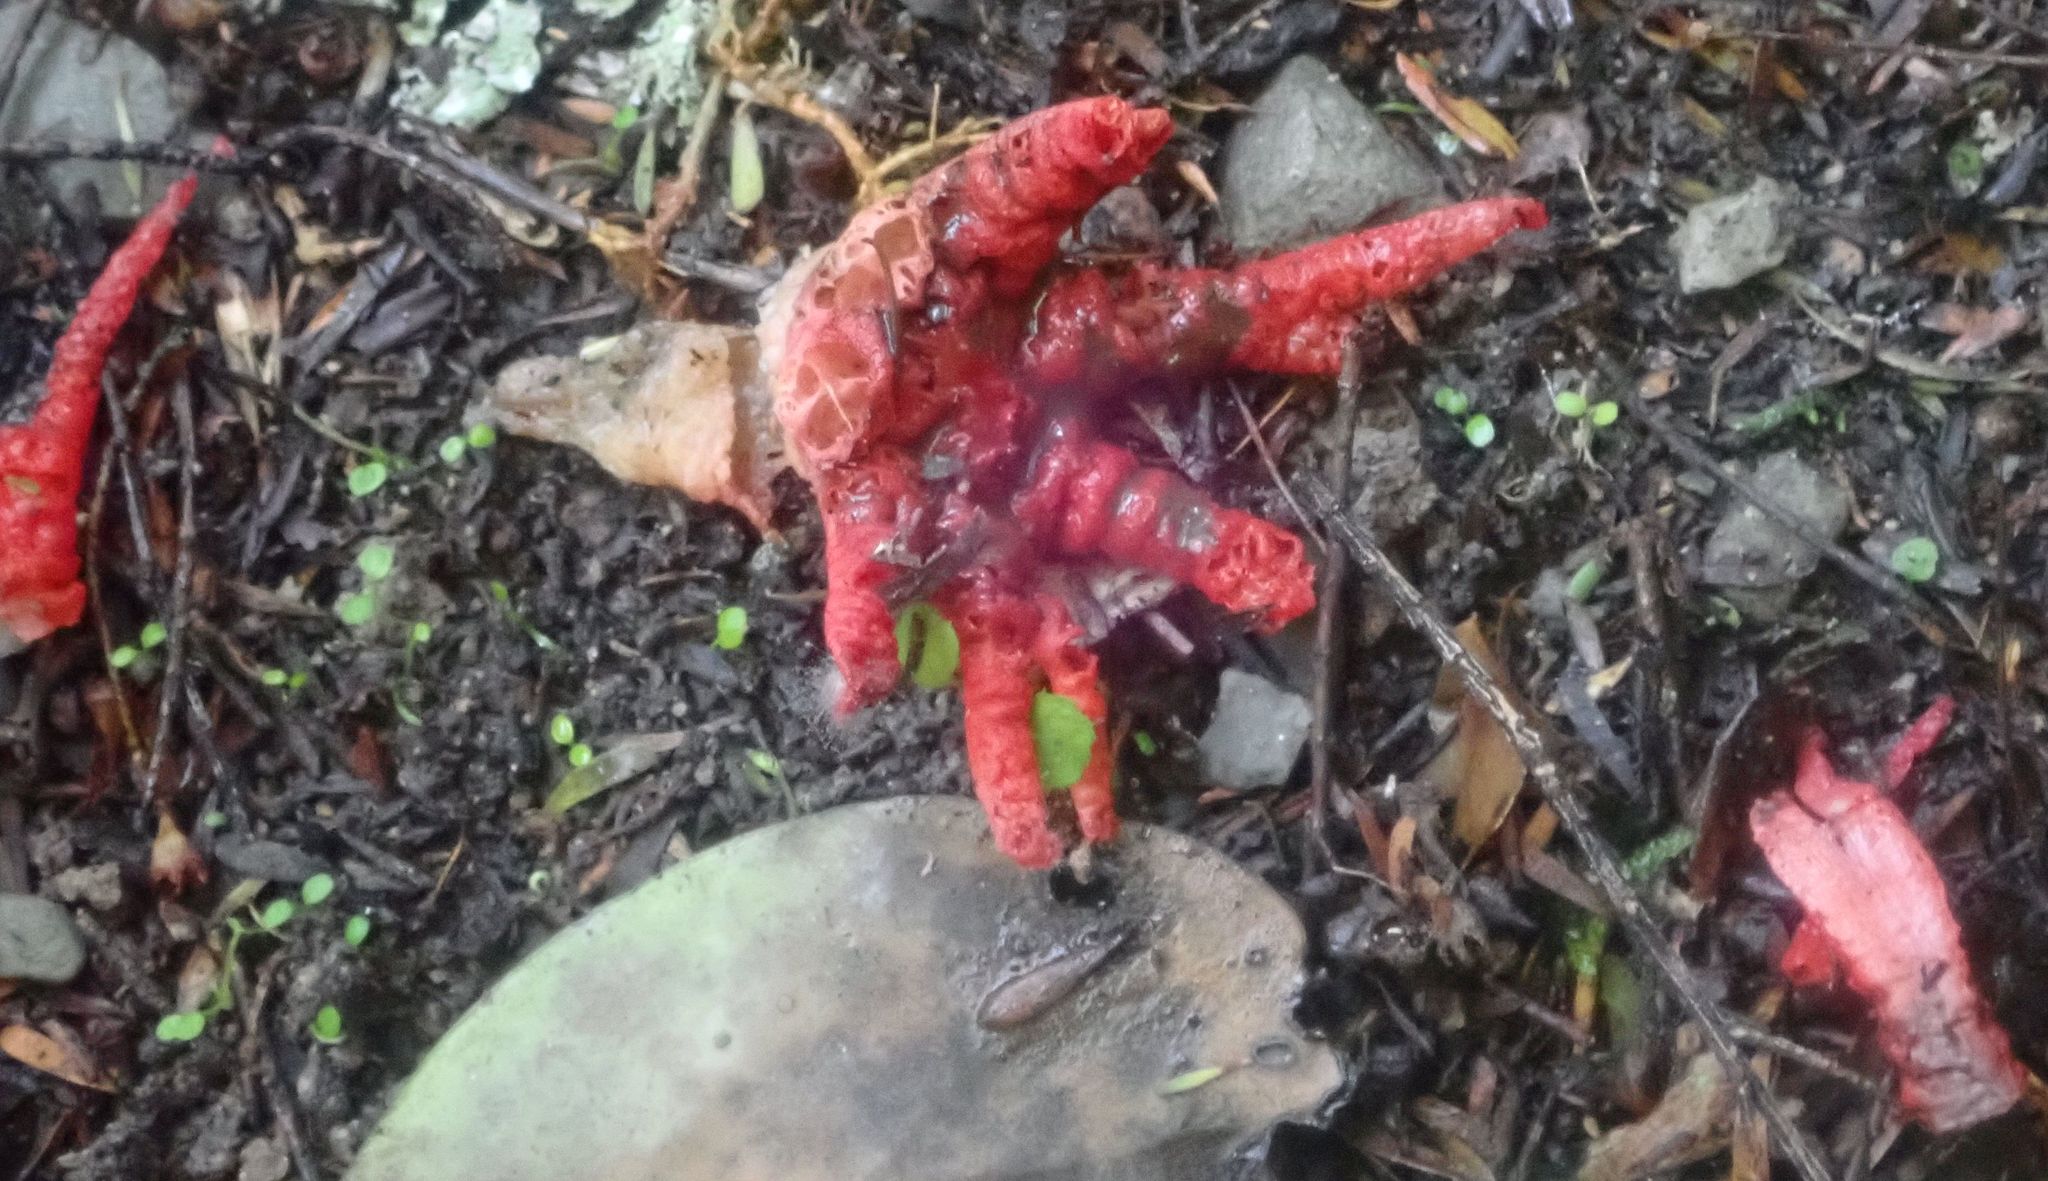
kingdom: Fungi
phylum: Basidiomycota
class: Agaricomycetes
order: Phallales
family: Phallaceae
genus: Clathrus
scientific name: Clathrus archeri
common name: Devil's fingers
